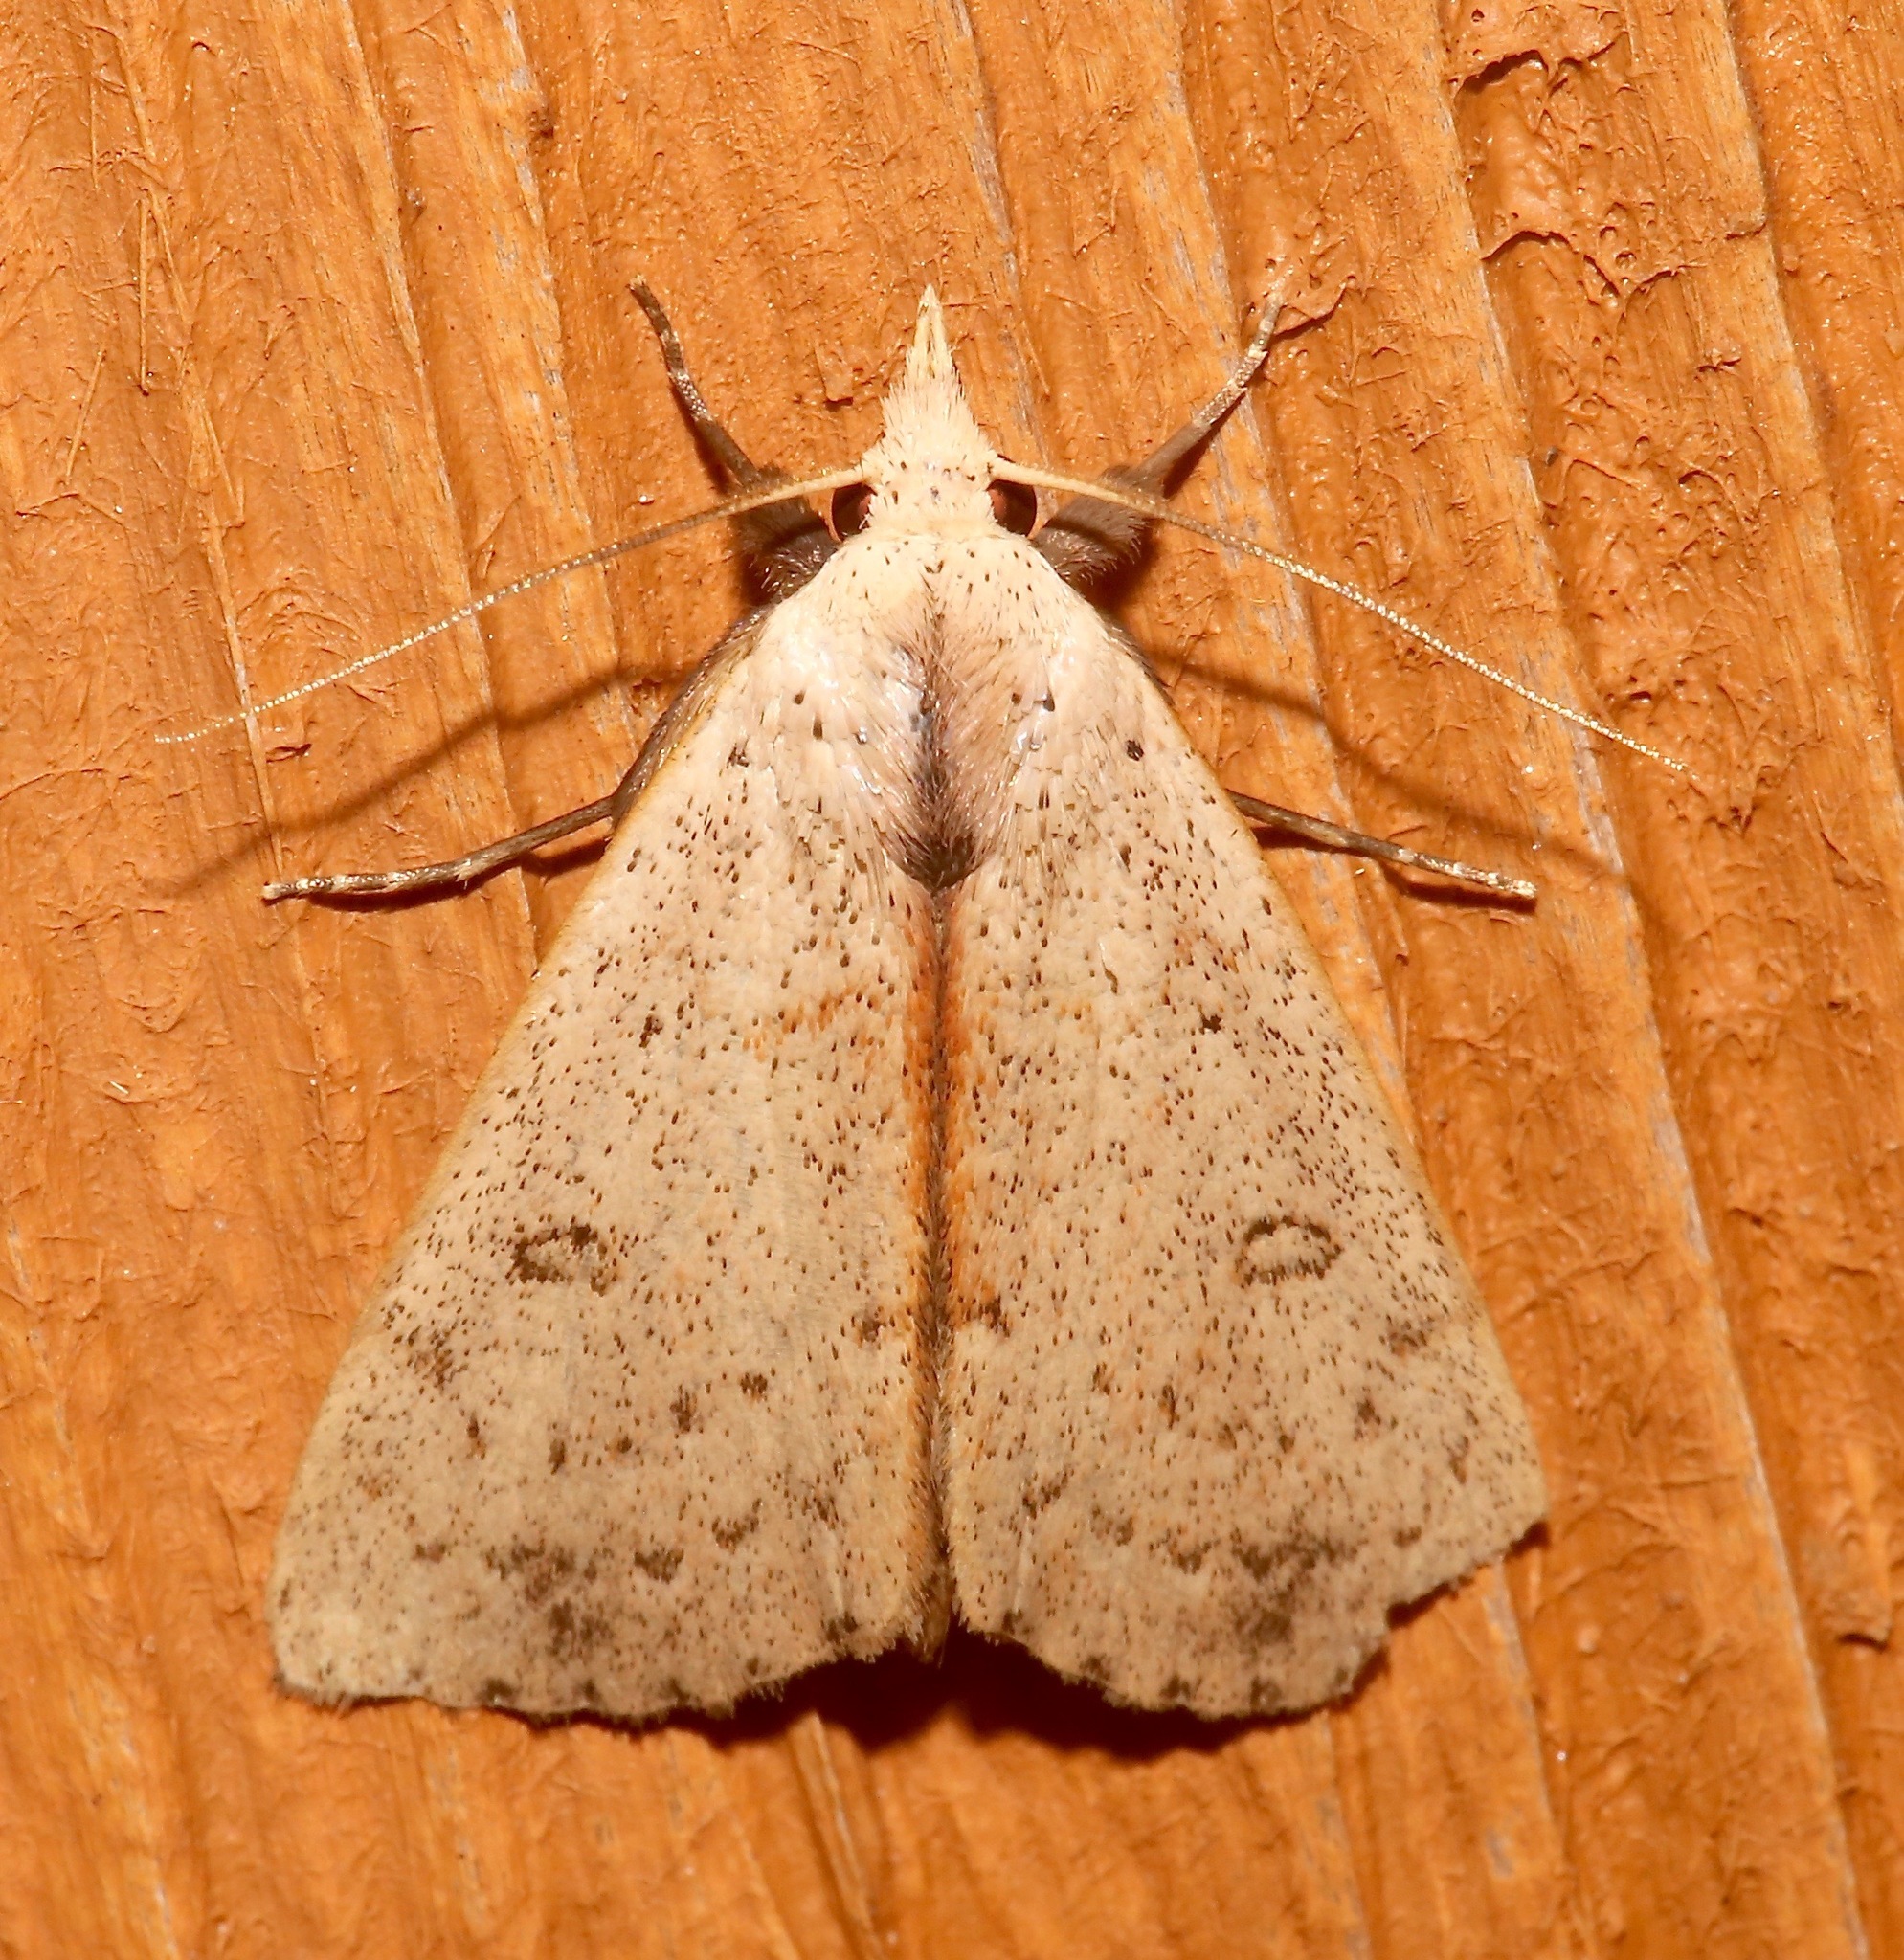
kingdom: Animalia
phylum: Arthropoda
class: Insecta
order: Lepidoptera
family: Erebidae
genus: Scolecocampa
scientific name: Scolecocampa liburna
